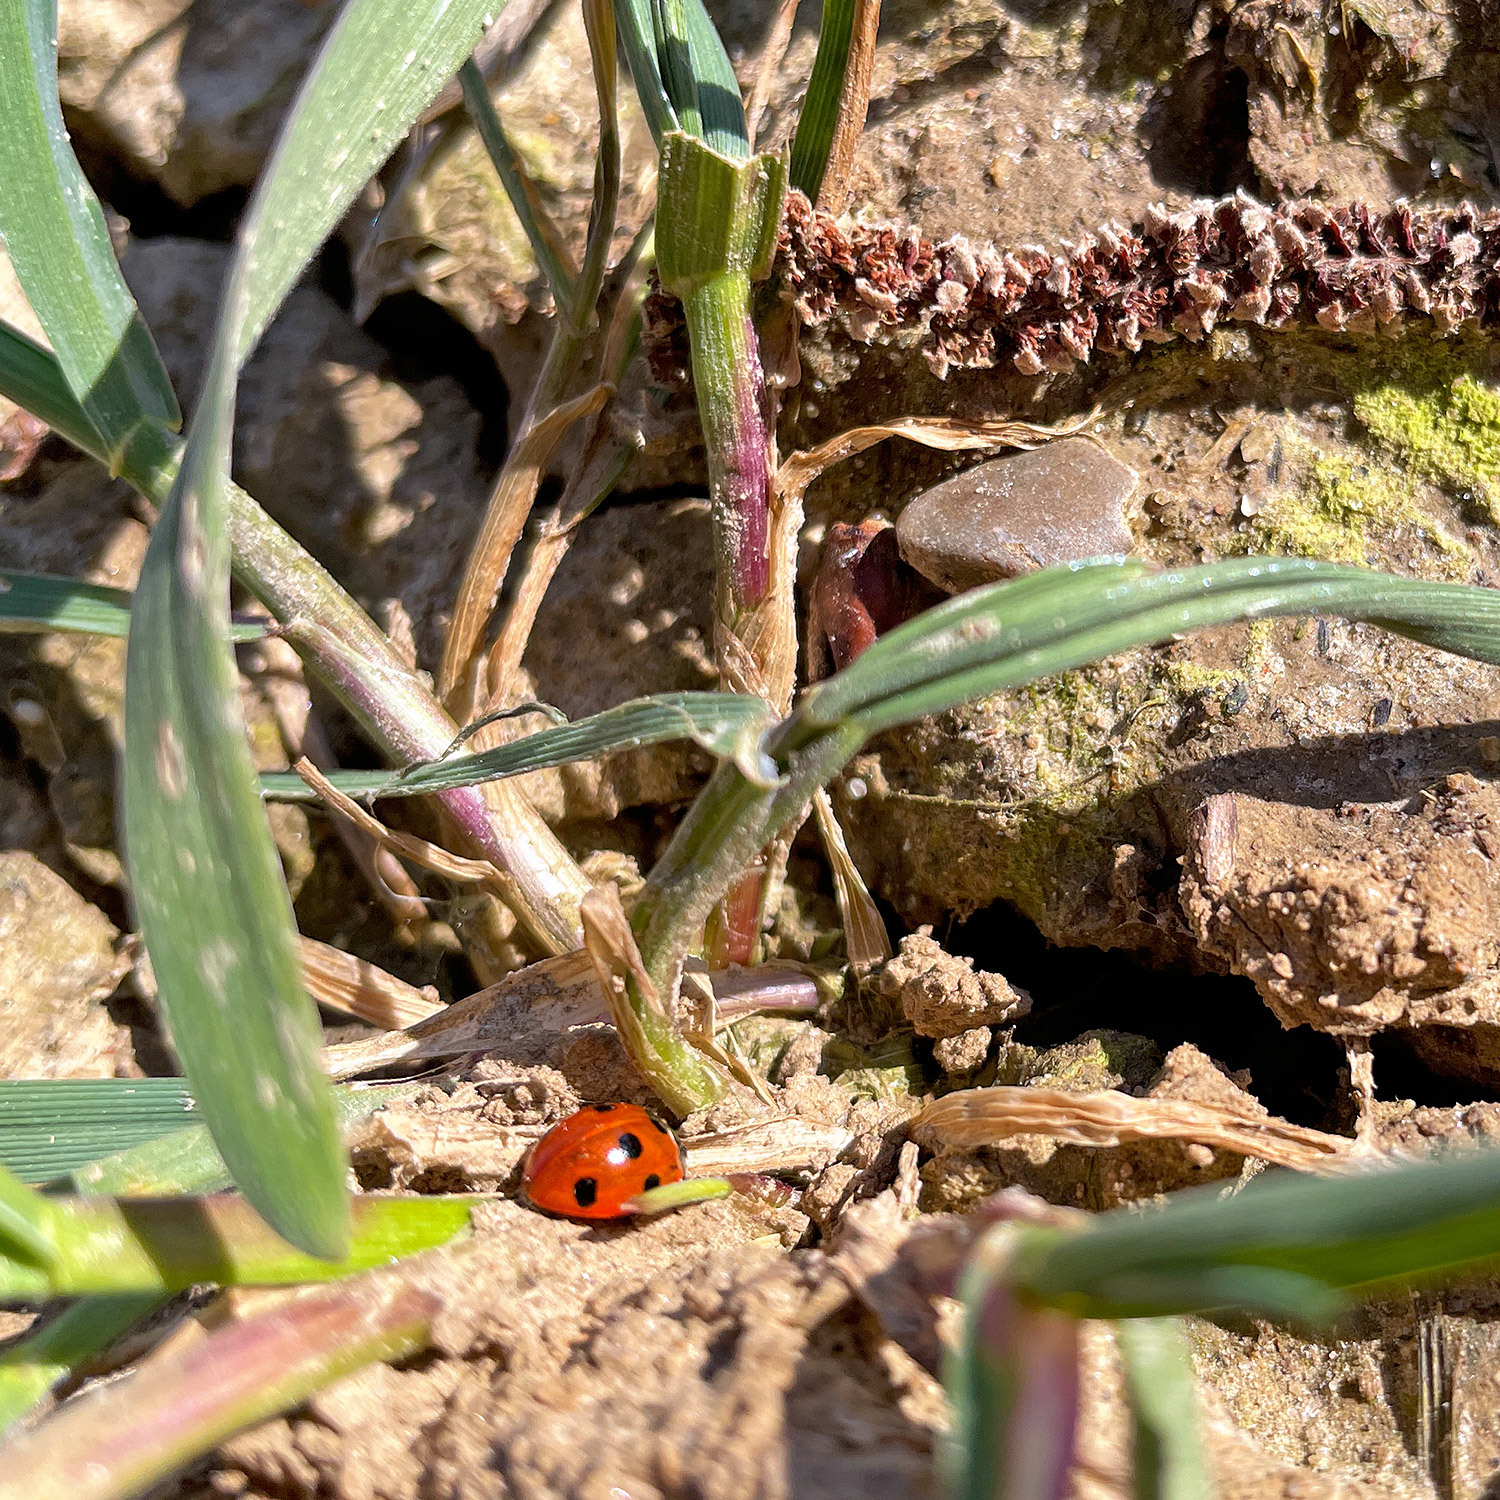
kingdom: Animalia
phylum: Arthropoda
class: Insecta
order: Coleoptera
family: Coccinellidae
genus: Coccinella
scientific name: Coccinella septempunctata
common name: Sevenspotted lady beetle
